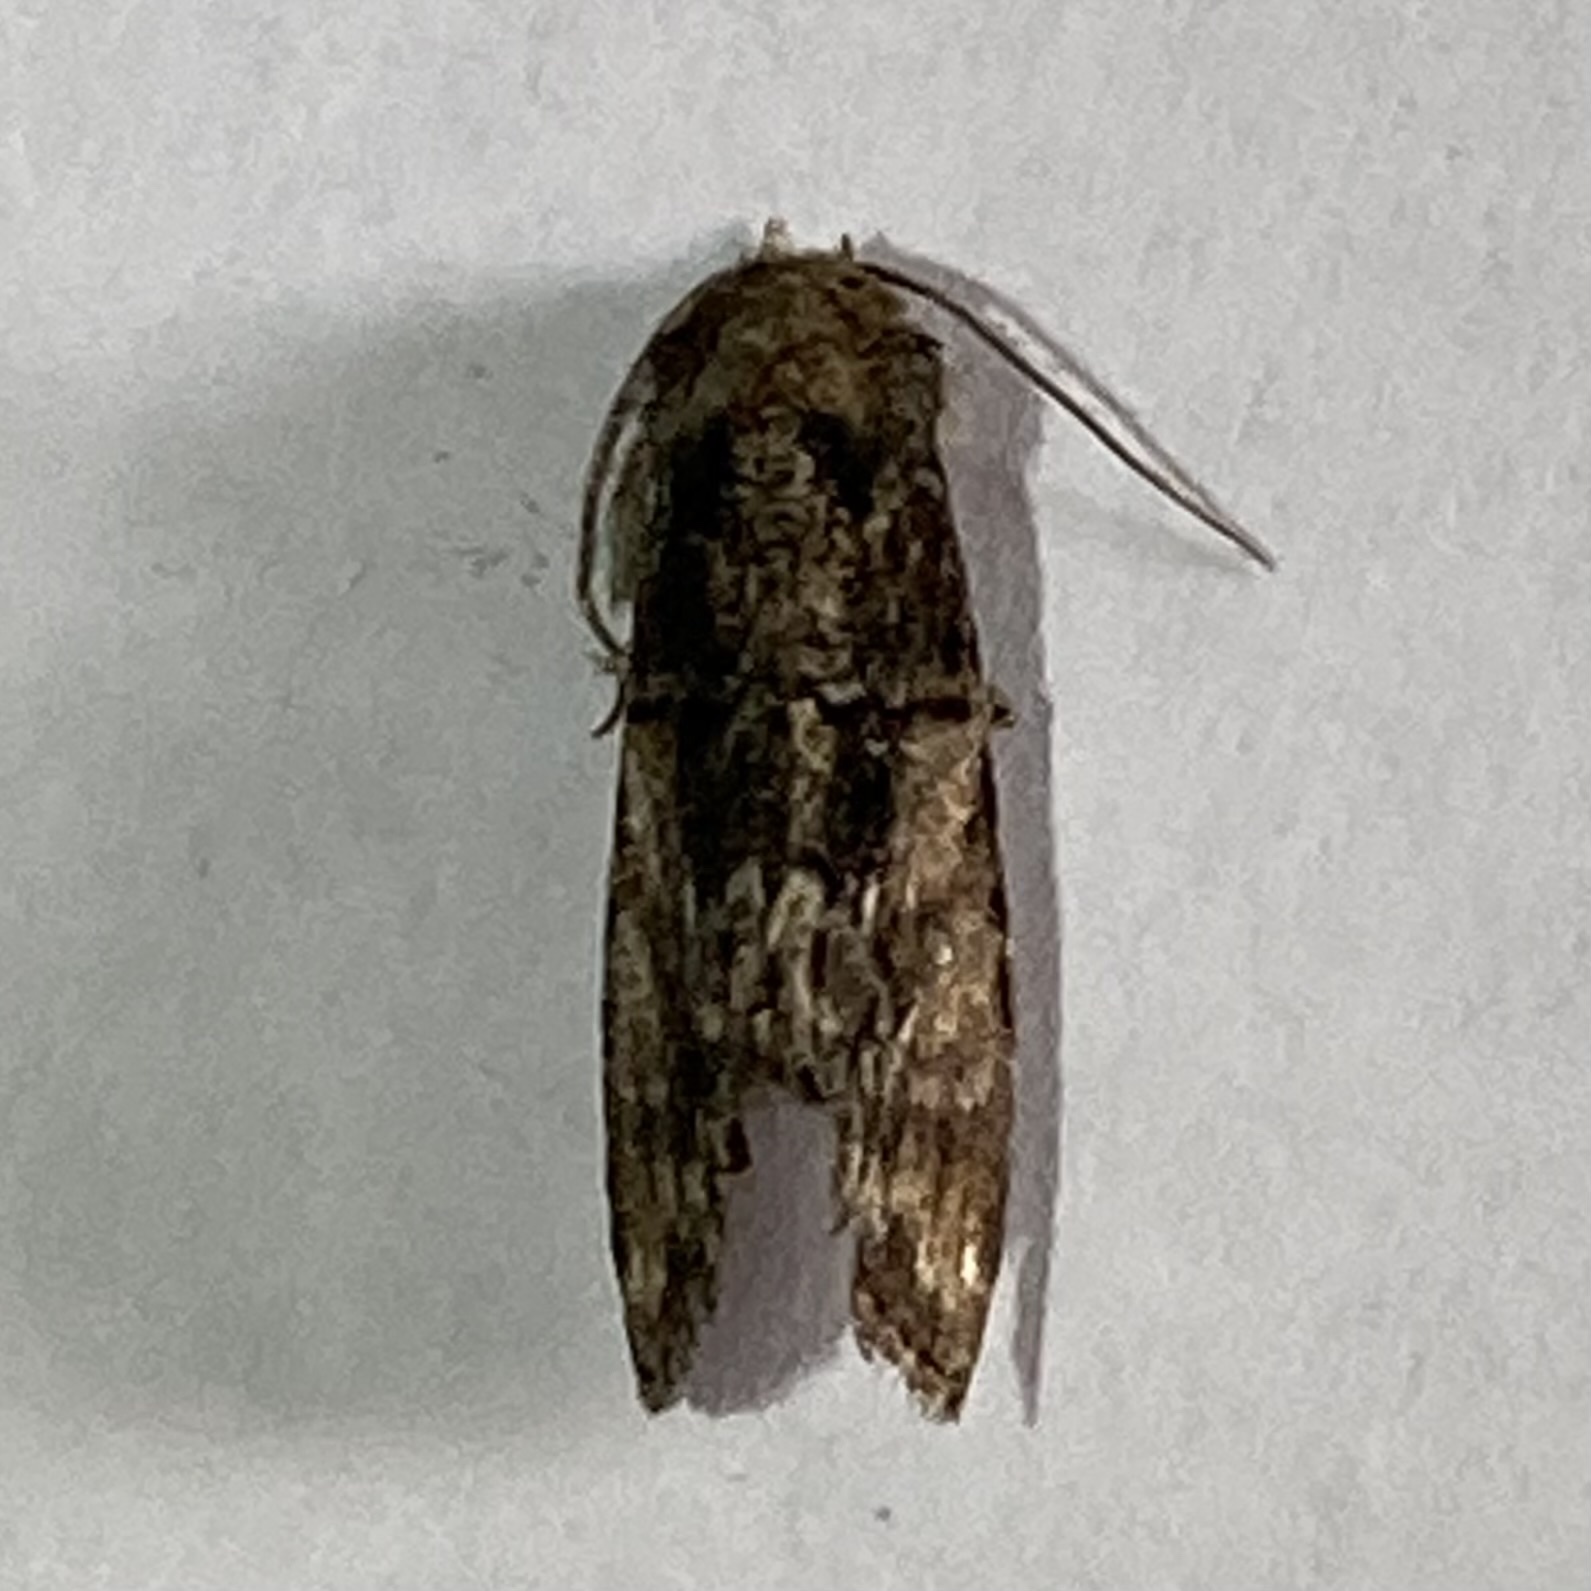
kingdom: Animalia
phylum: Arthropoda
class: Insecta
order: Lepidoptera
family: Noctuidae
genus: Chytonix
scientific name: Chytonix palliatricula
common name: Cloaked marvel
